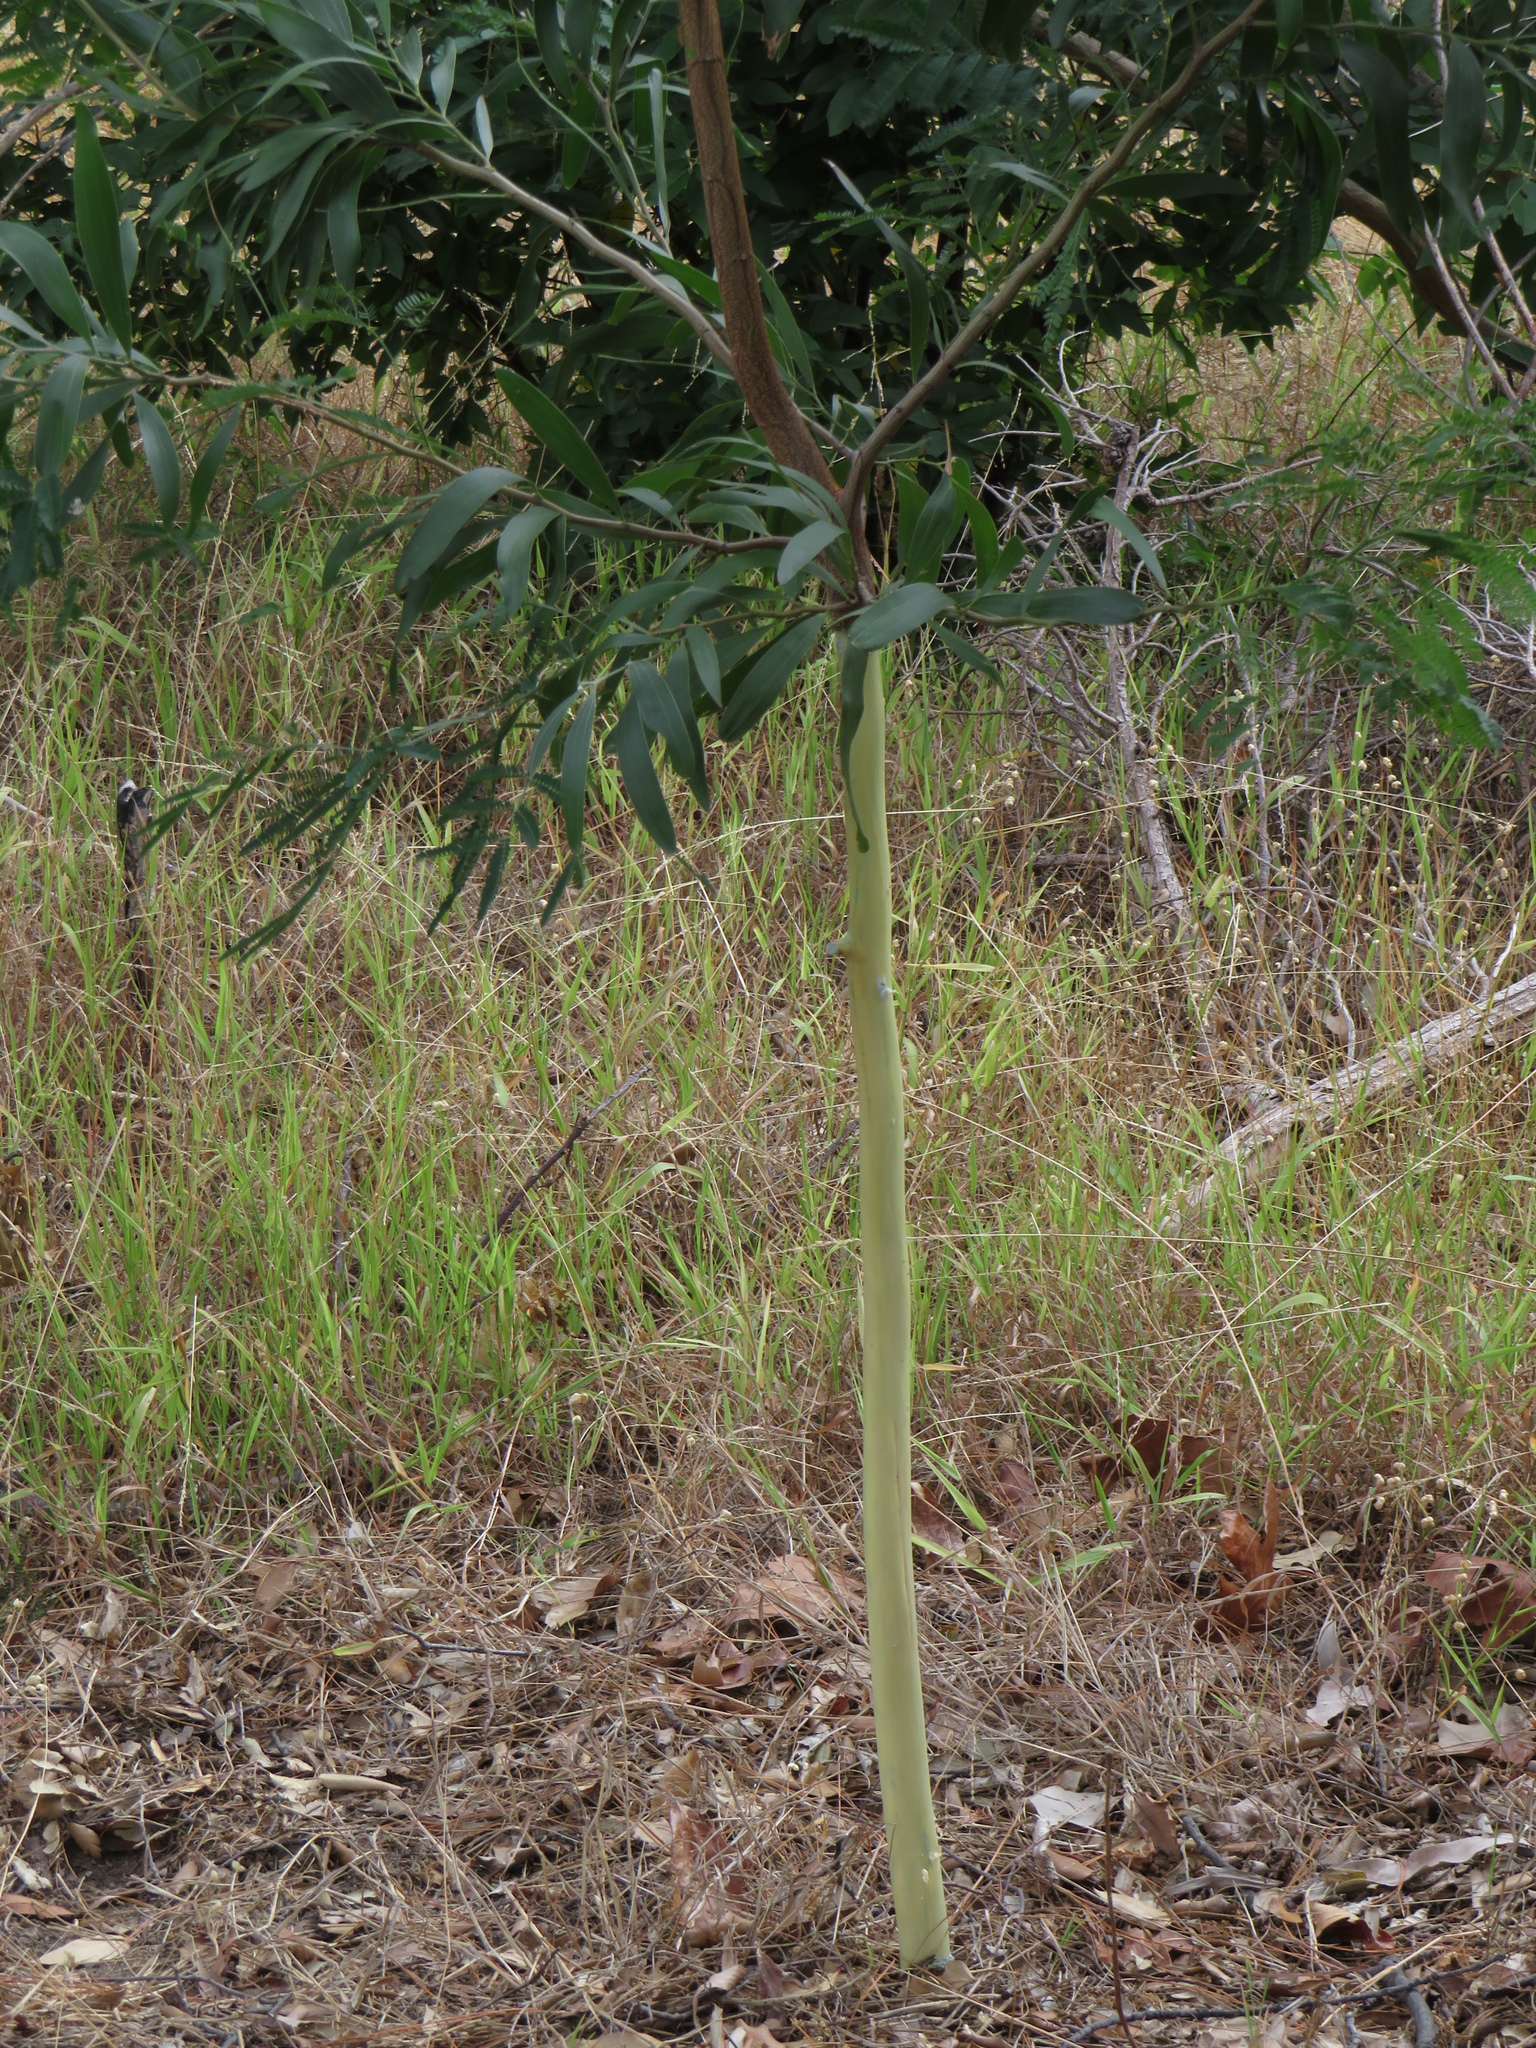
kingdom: Plantae
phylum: Tracheophyta
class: Magnoliopsida
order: Fabales
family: Fabaceae
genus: Acacia
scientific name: Acacia melanoxylon
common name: Blackwood
